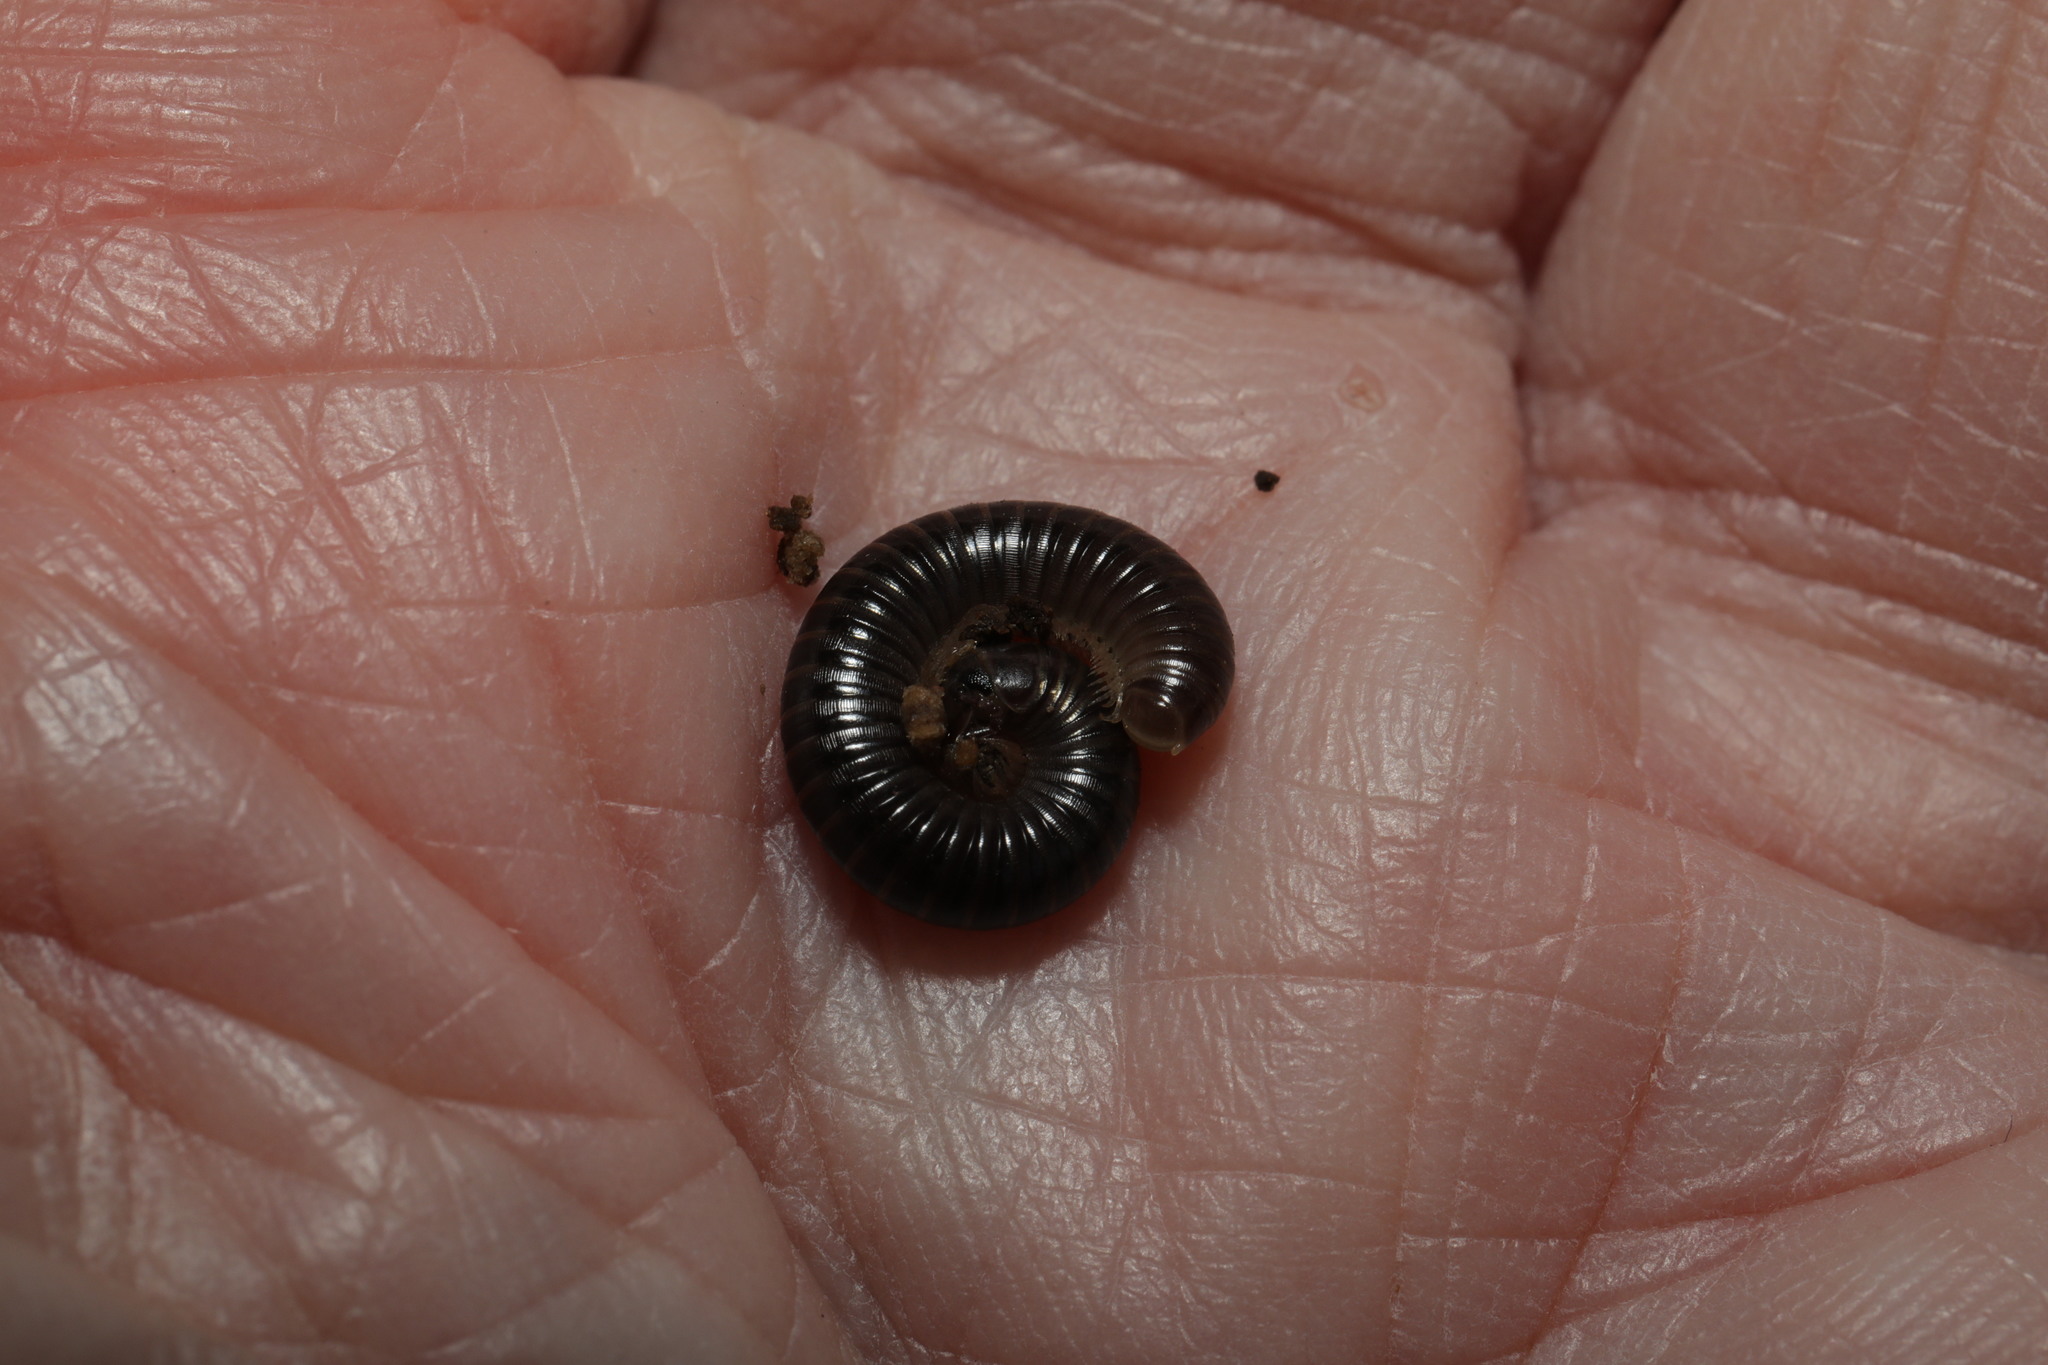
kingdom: Animalia
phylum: Arthropoda
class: Diplopoda
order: Julida
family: Julidae
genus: Cylindroiulus
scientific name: Cylindroiulus londinensis
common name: Black millipede
